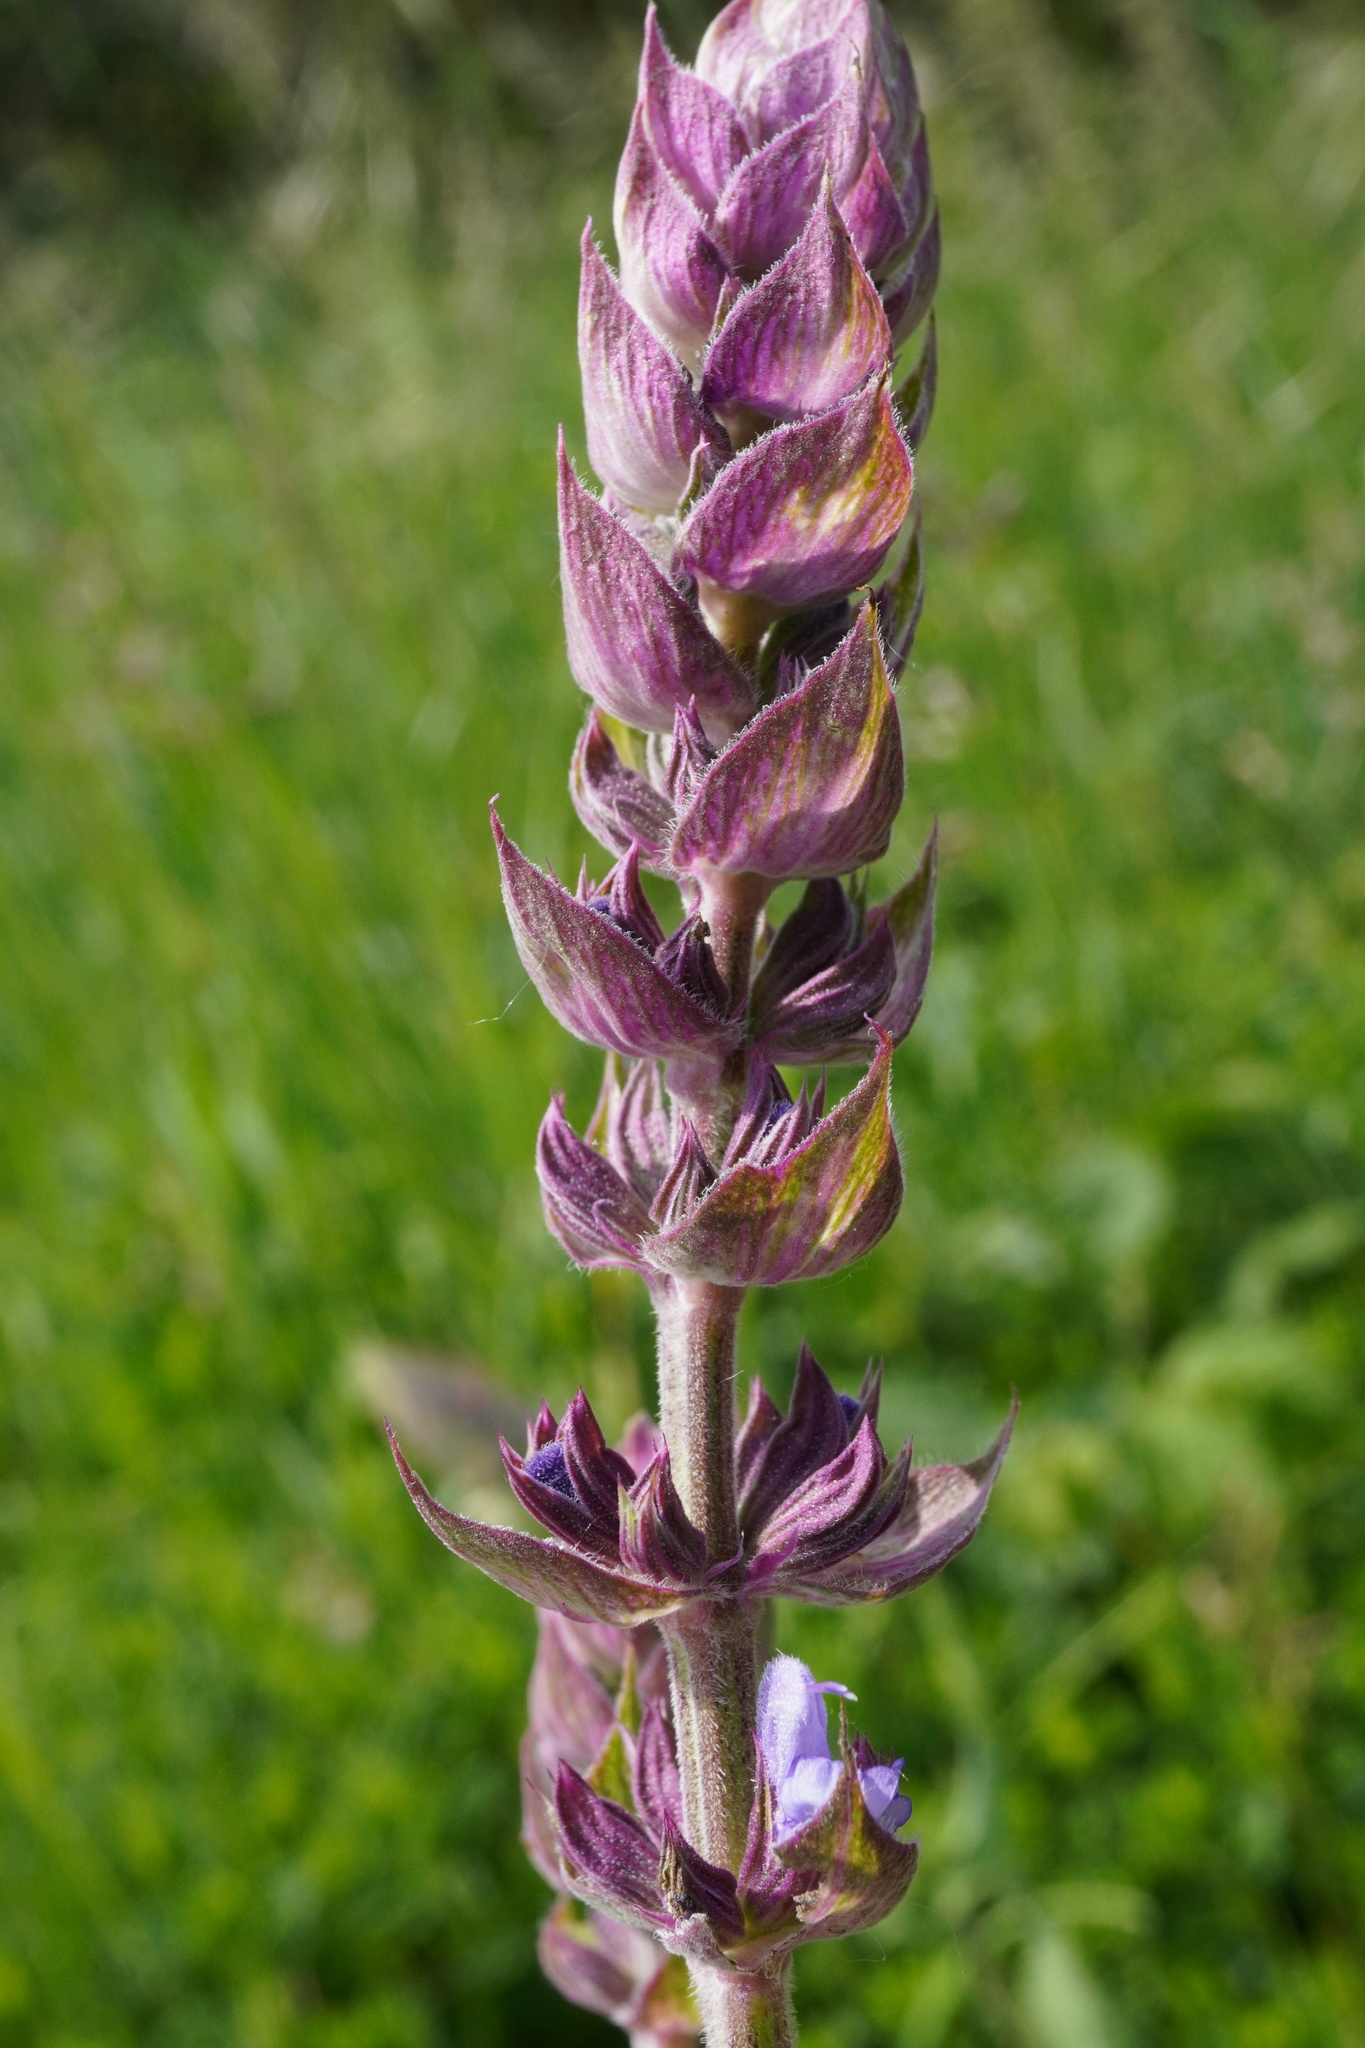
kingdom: Plantae
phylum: Tracheophyta
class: Magnoliopsida
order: Lamiales
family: Lamiaceae
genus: Salvia
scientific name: Salvia nemorosa
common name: Balkan clary
